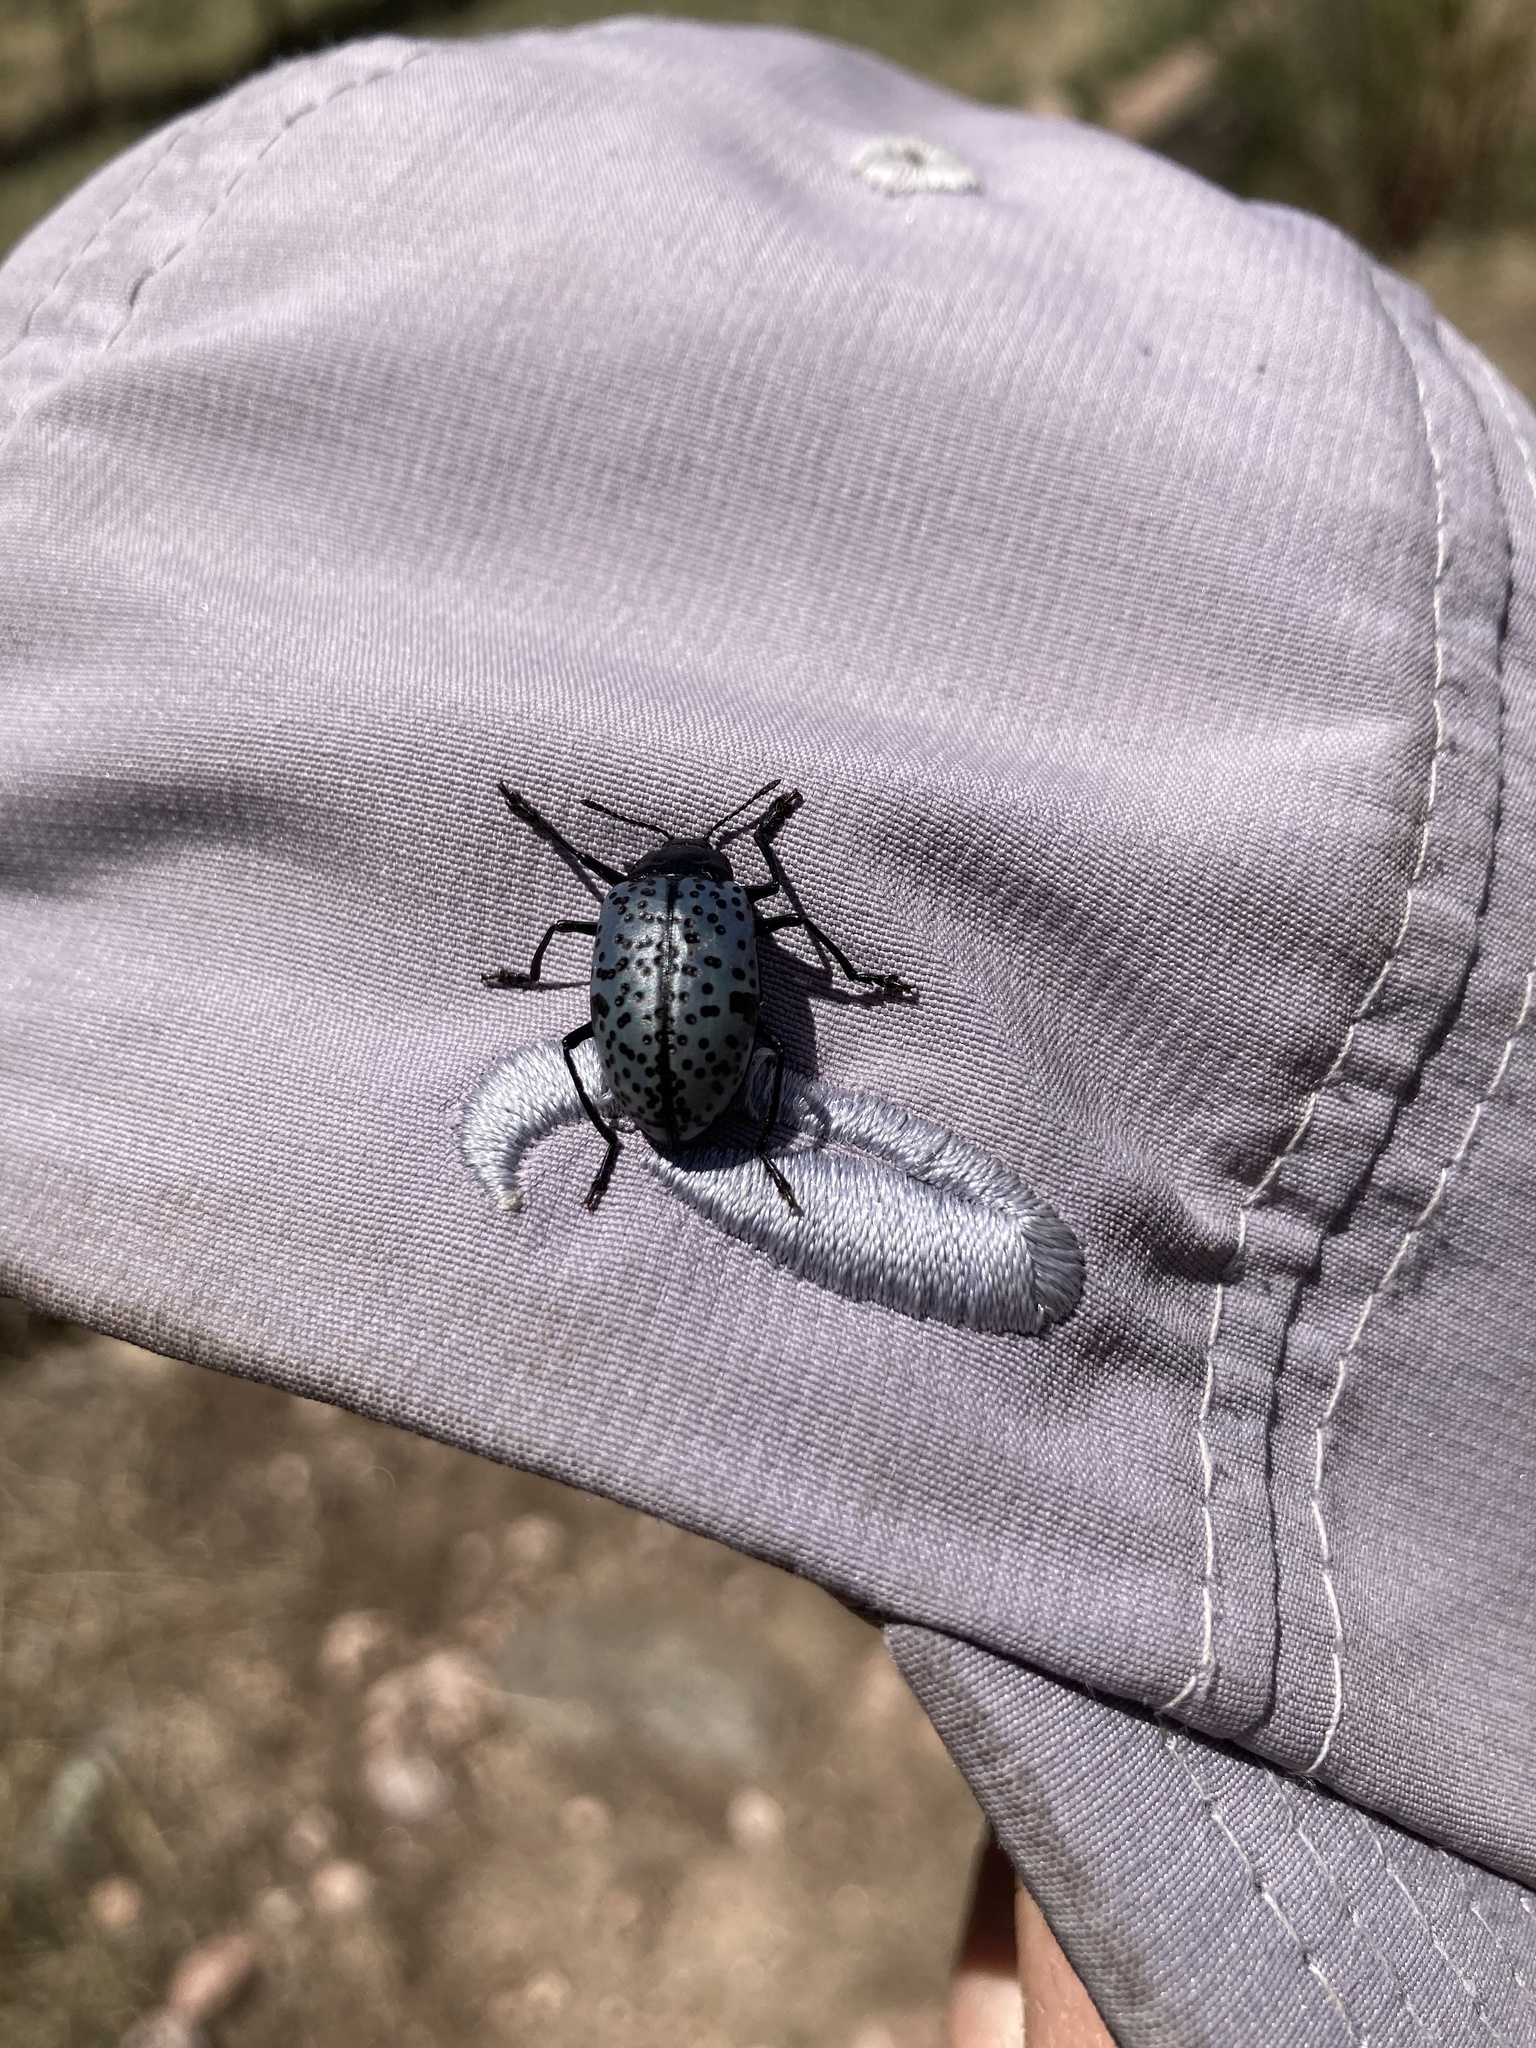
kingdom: Animalia
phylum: Arthropoda
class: Insecta
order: Coleoptera
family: Erotylidae
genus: Gibbifer
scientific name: Gibbifer californicus
